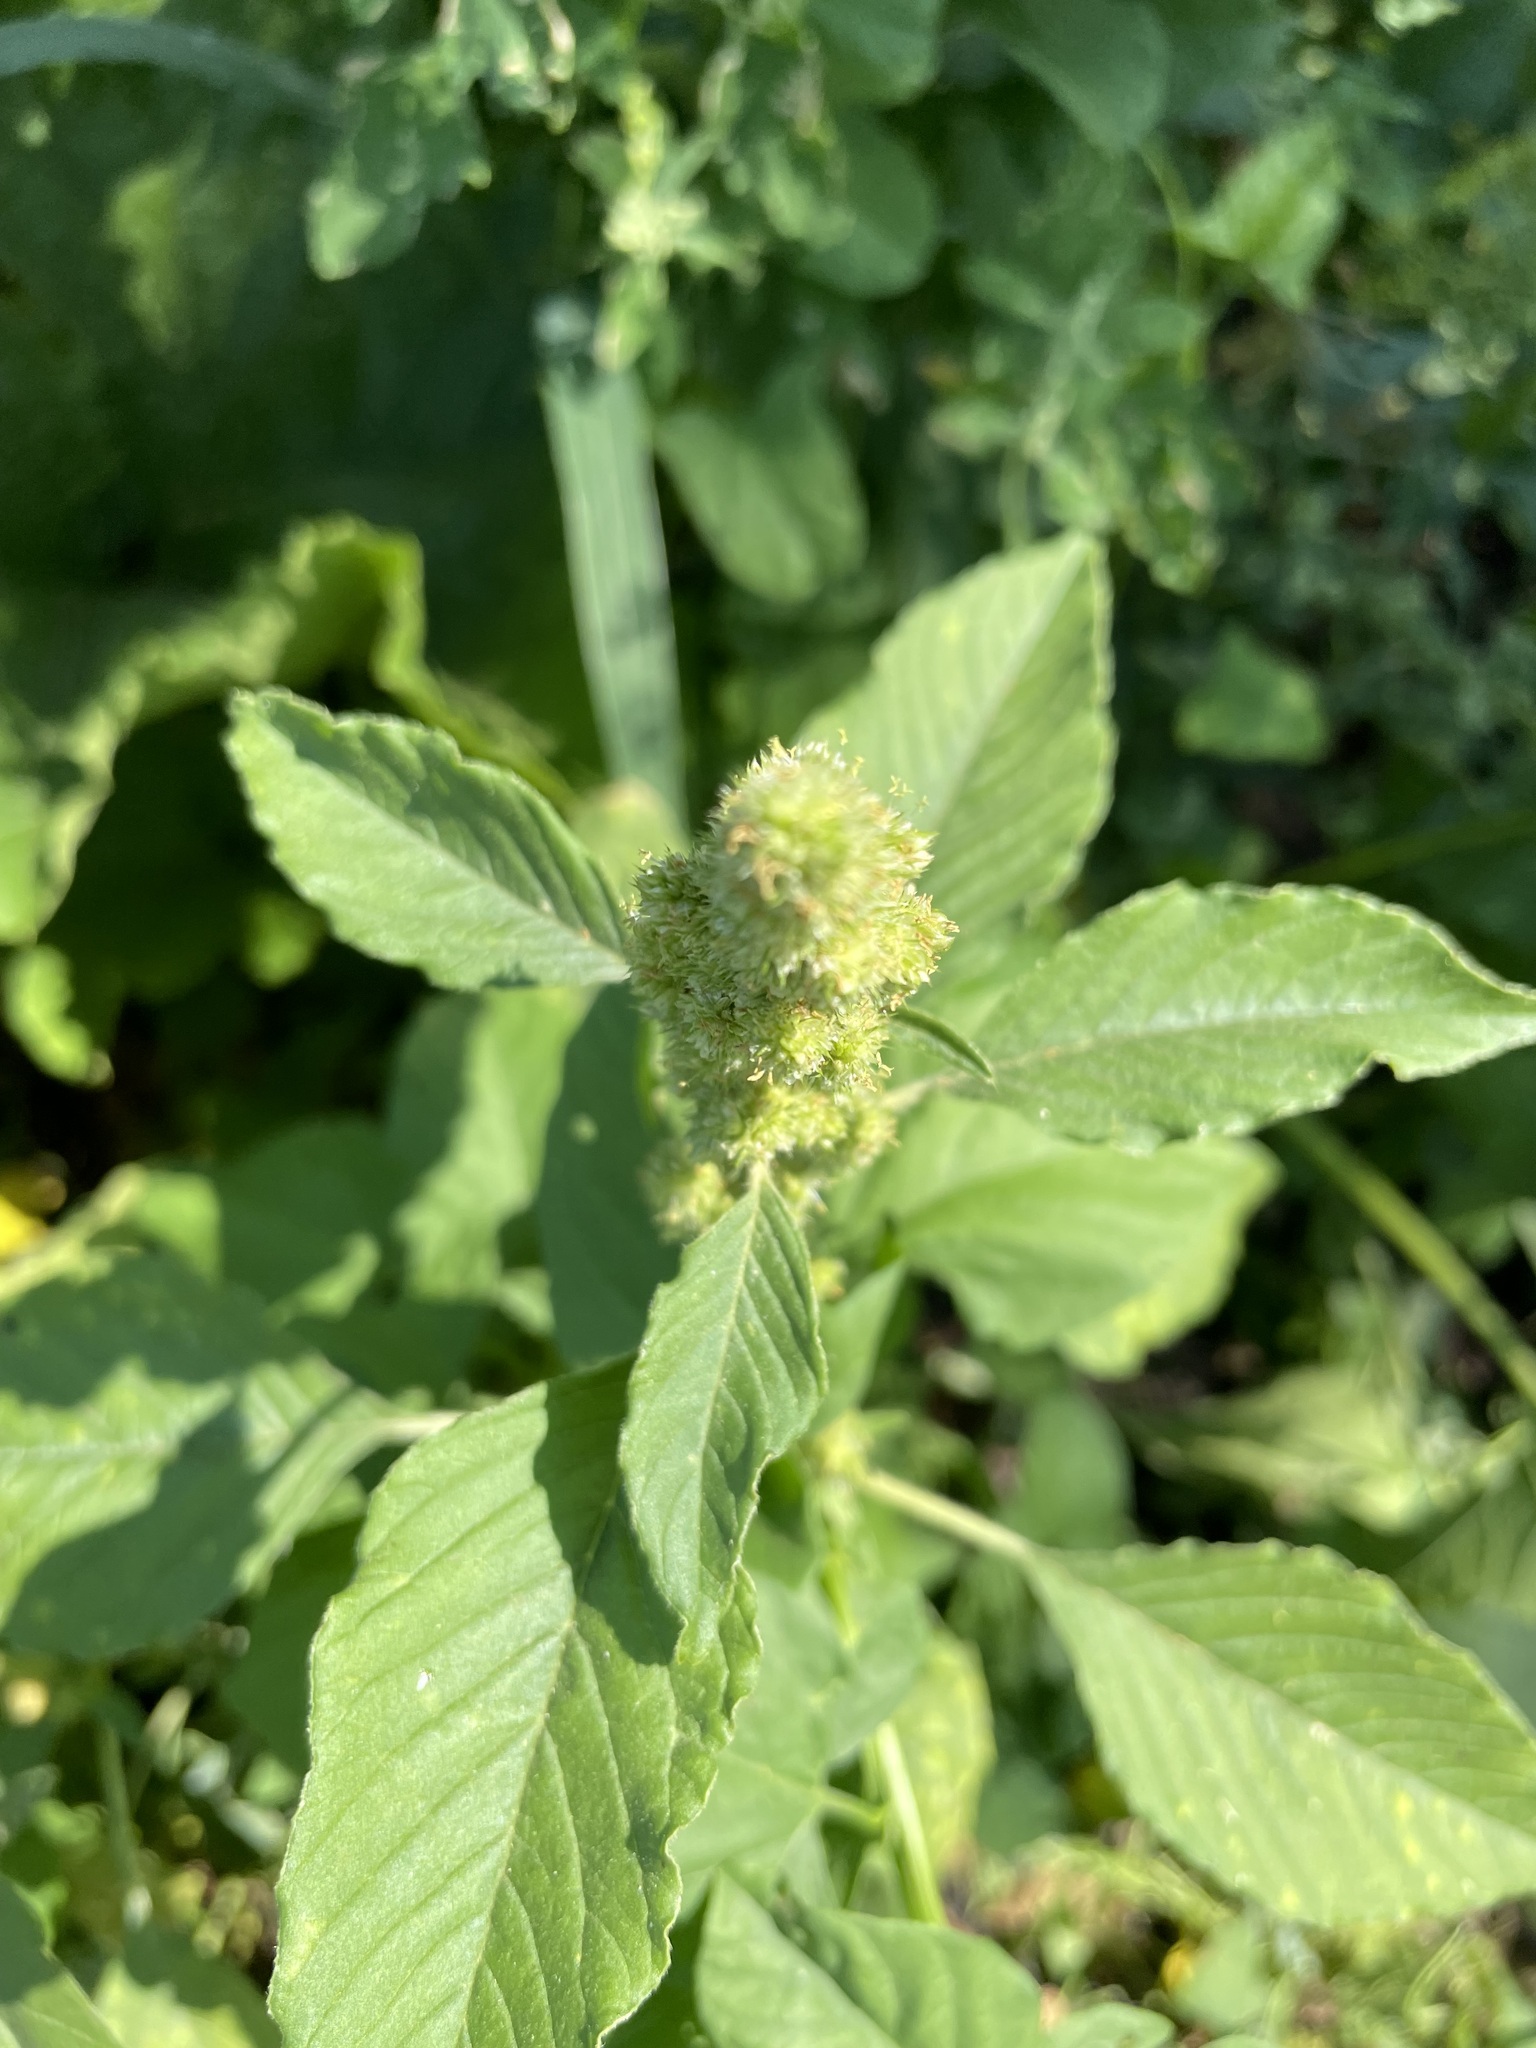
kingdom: Plantae
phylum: Tracheophyta
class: Magnoliopsida
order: Caryophyllales
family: Amaranthaceae
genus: Amaranthus
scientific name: Amaranthus retroflexus
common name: Redroot amaranth
